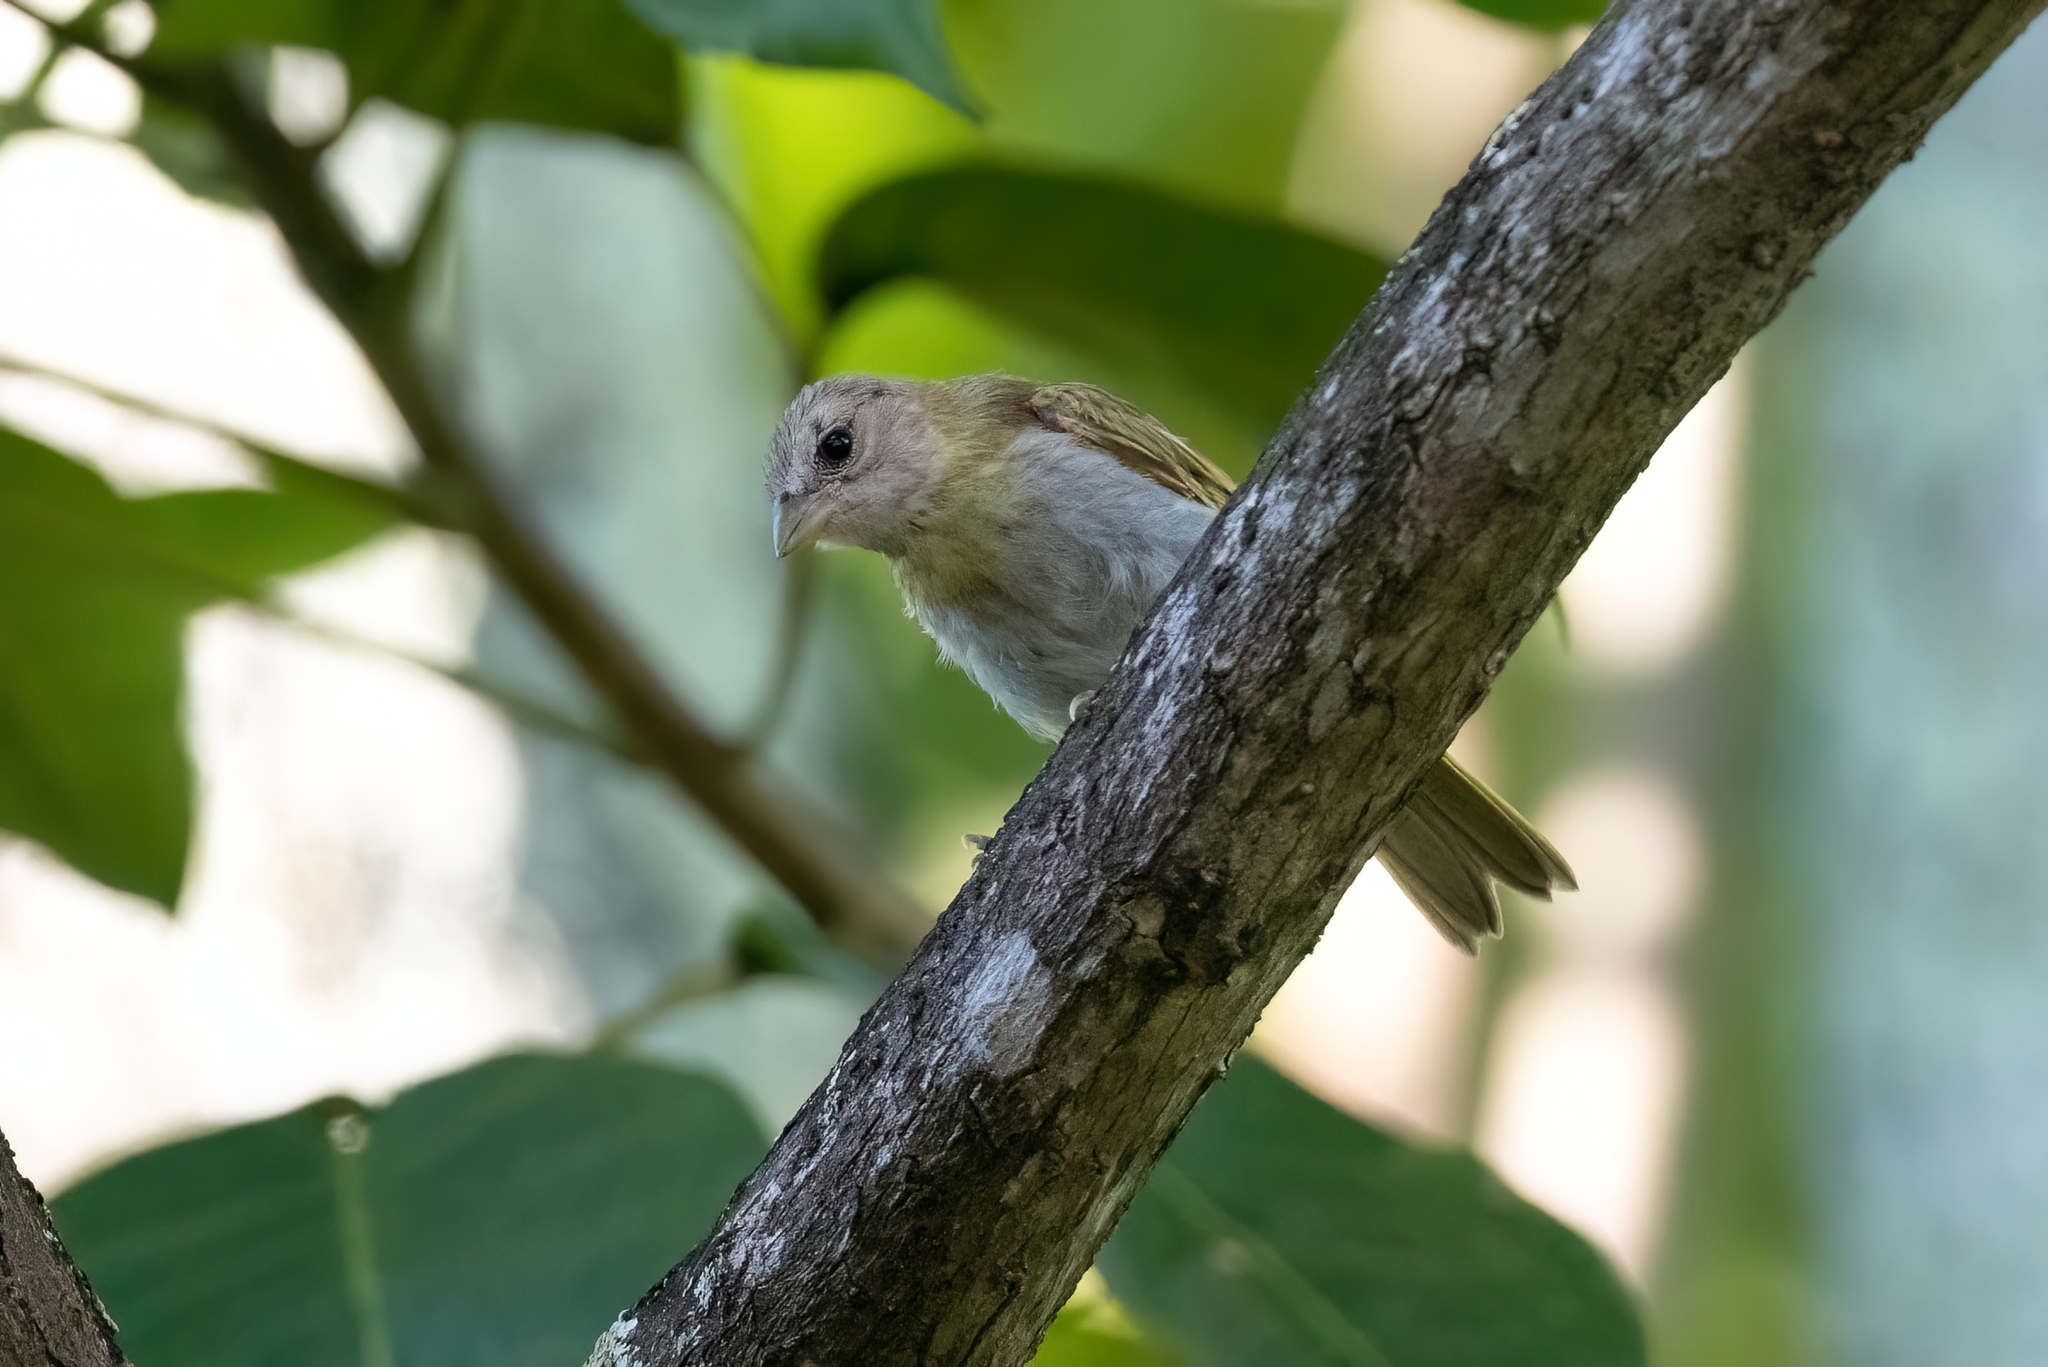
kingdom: Animalia
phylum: Chordata
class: Aves
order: Passeriformes
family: Thraupidae
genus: Sicalis
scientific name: Sicalis flaveola
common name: Saffron finch
